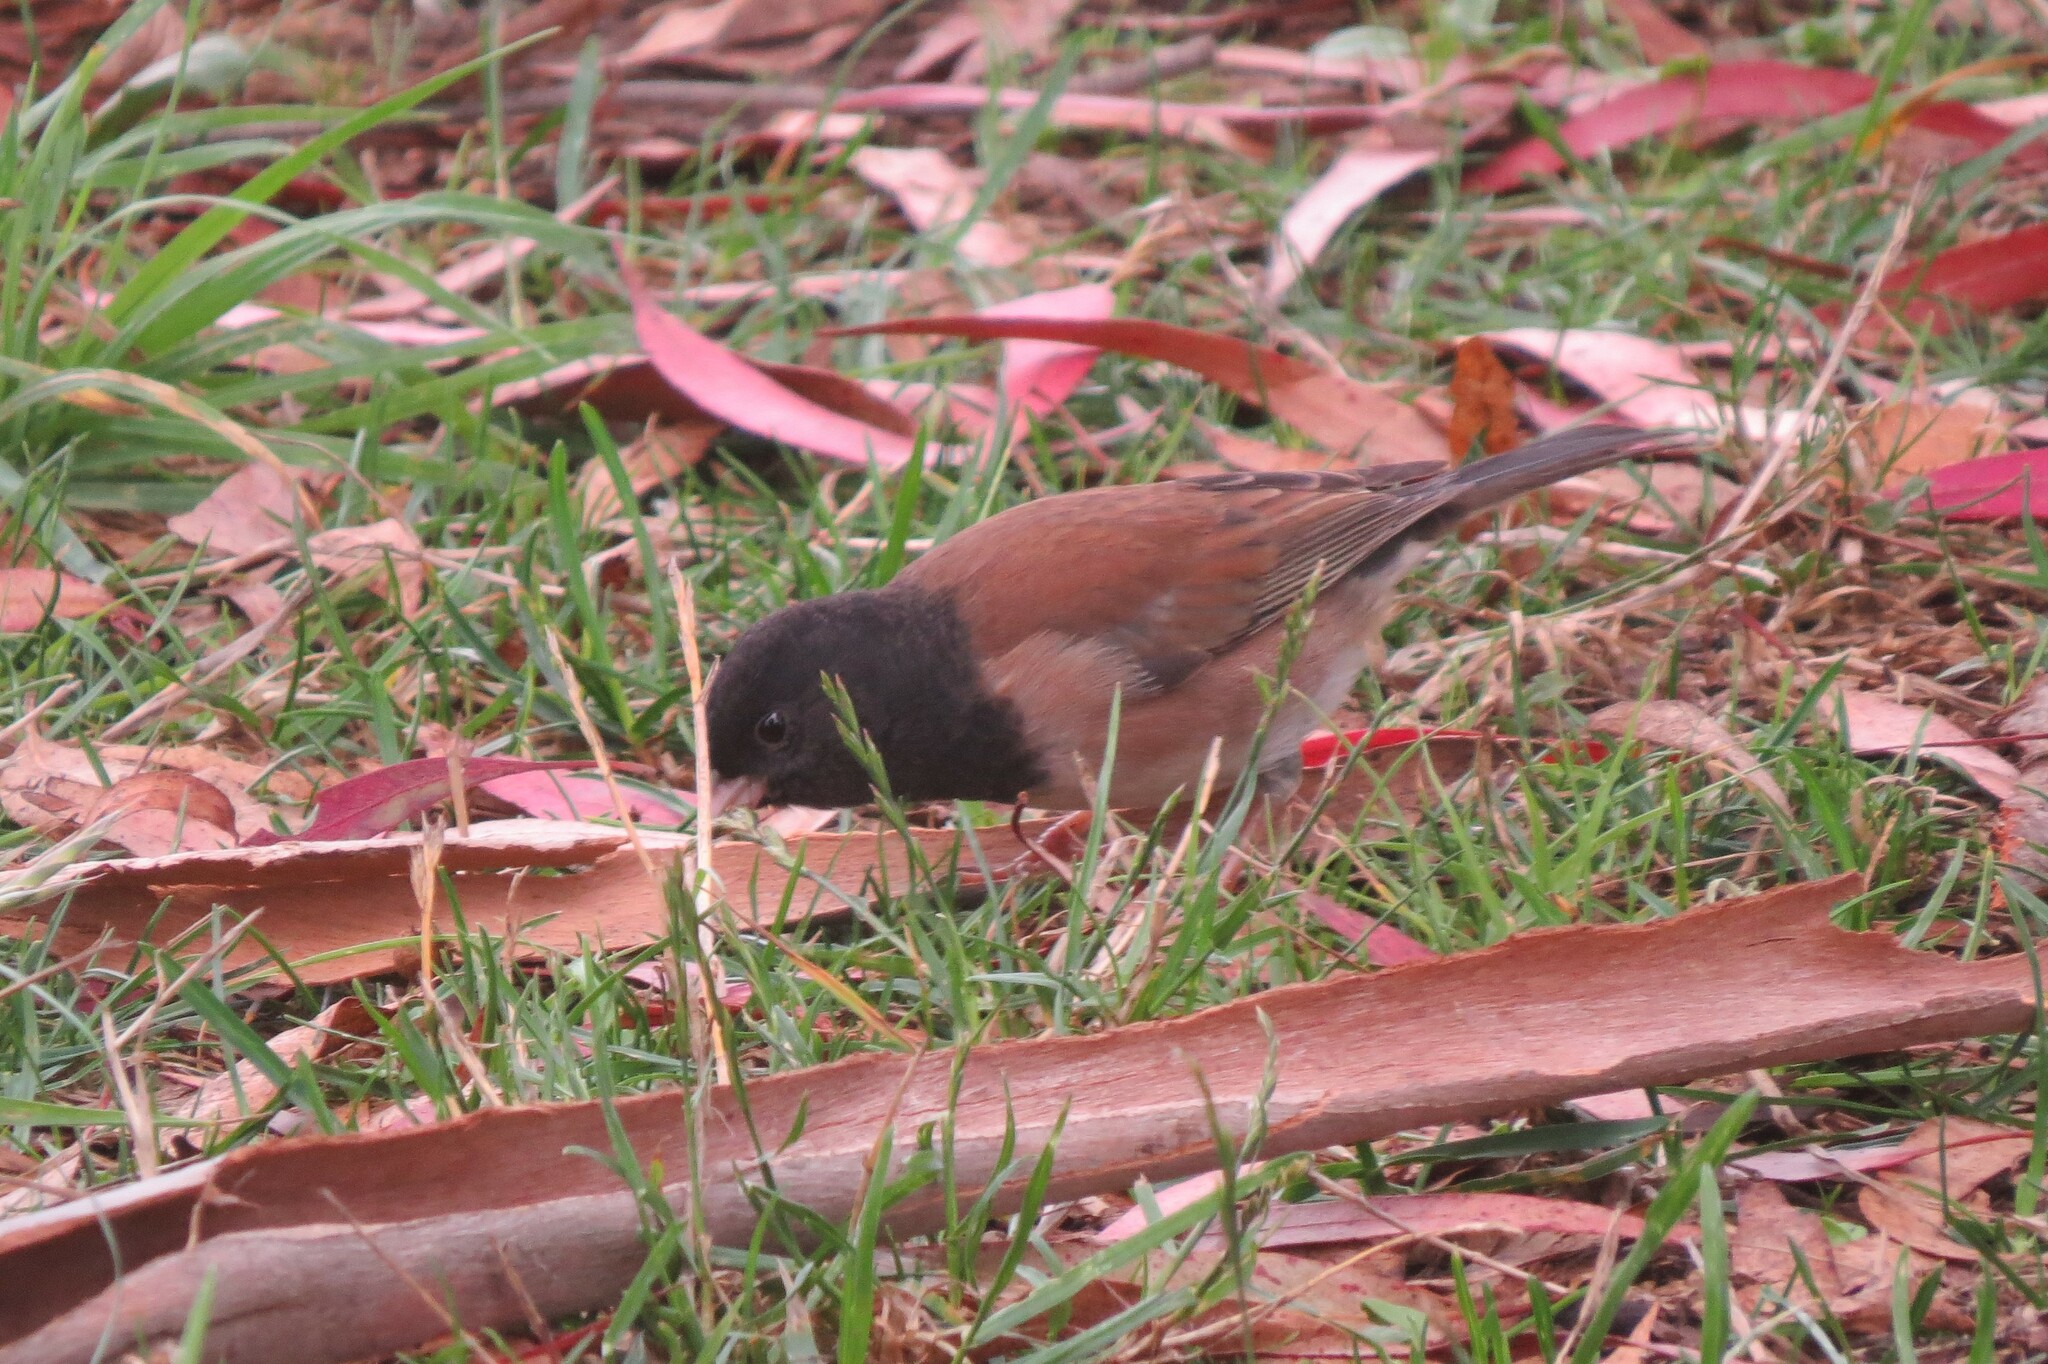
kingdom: Animalia
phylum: Chordata
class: Aves
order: Passeriformes
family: Passerellidae
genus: Junco
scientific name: Junco hyemalis
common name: Dark-eyed junco
